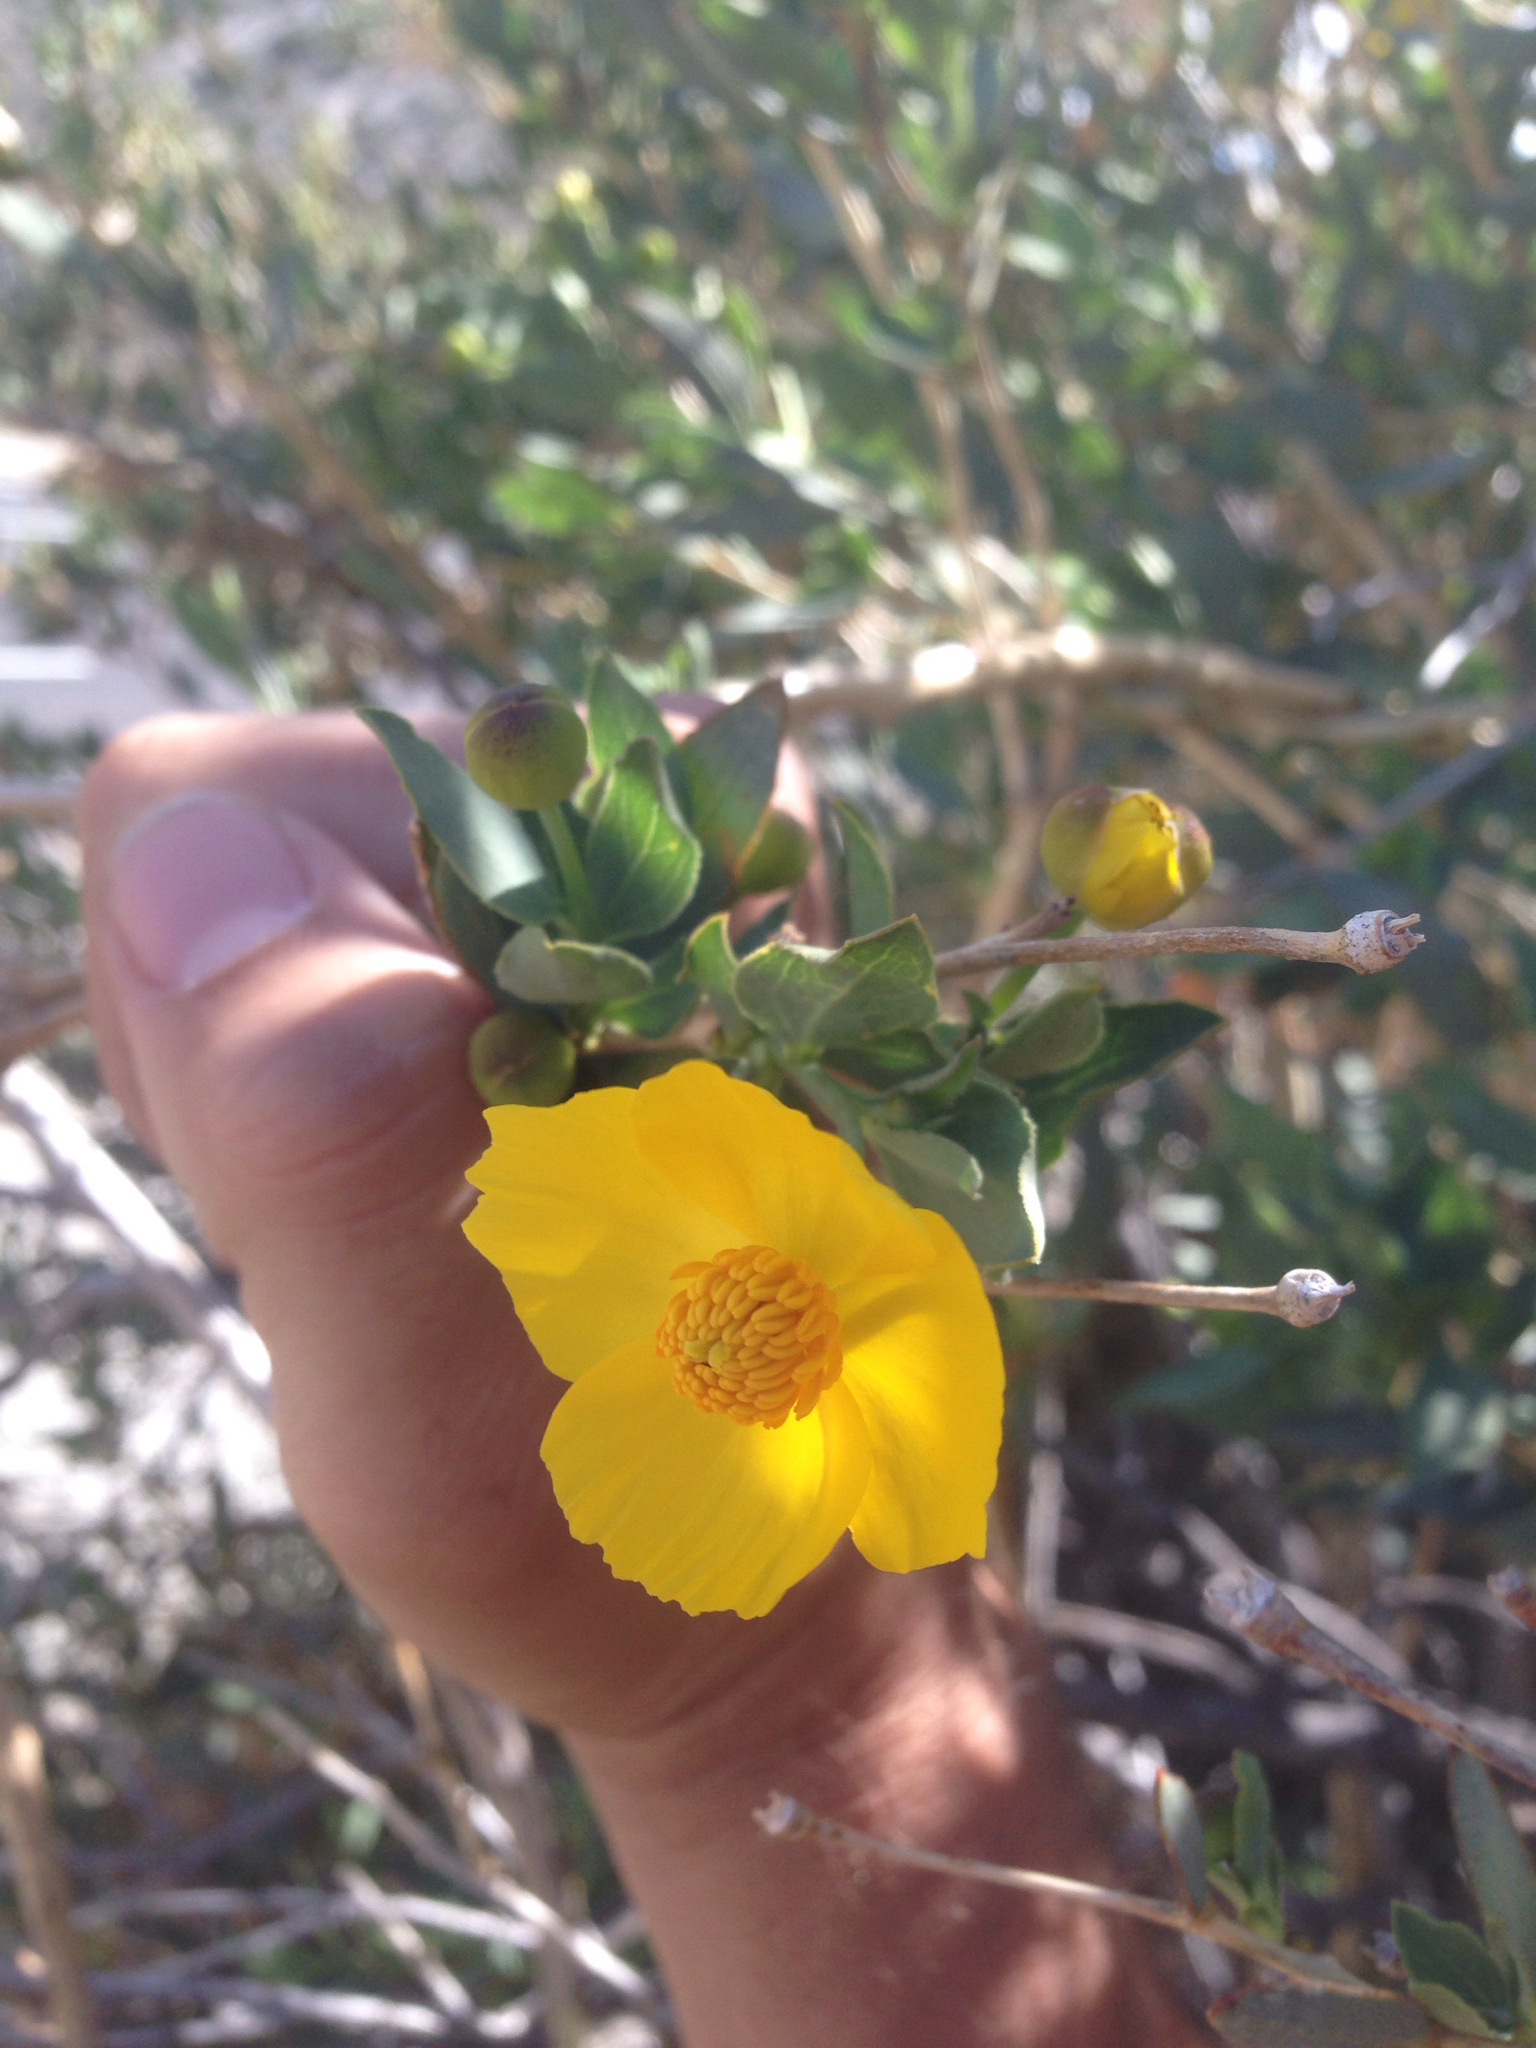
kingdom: Plantae
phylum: Tracheophyta
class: Magnoliopsida
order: Ranunculales
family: Papaveraceae
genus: Dendromecon
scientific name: Dendromecon rigida
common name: Tree poppy
